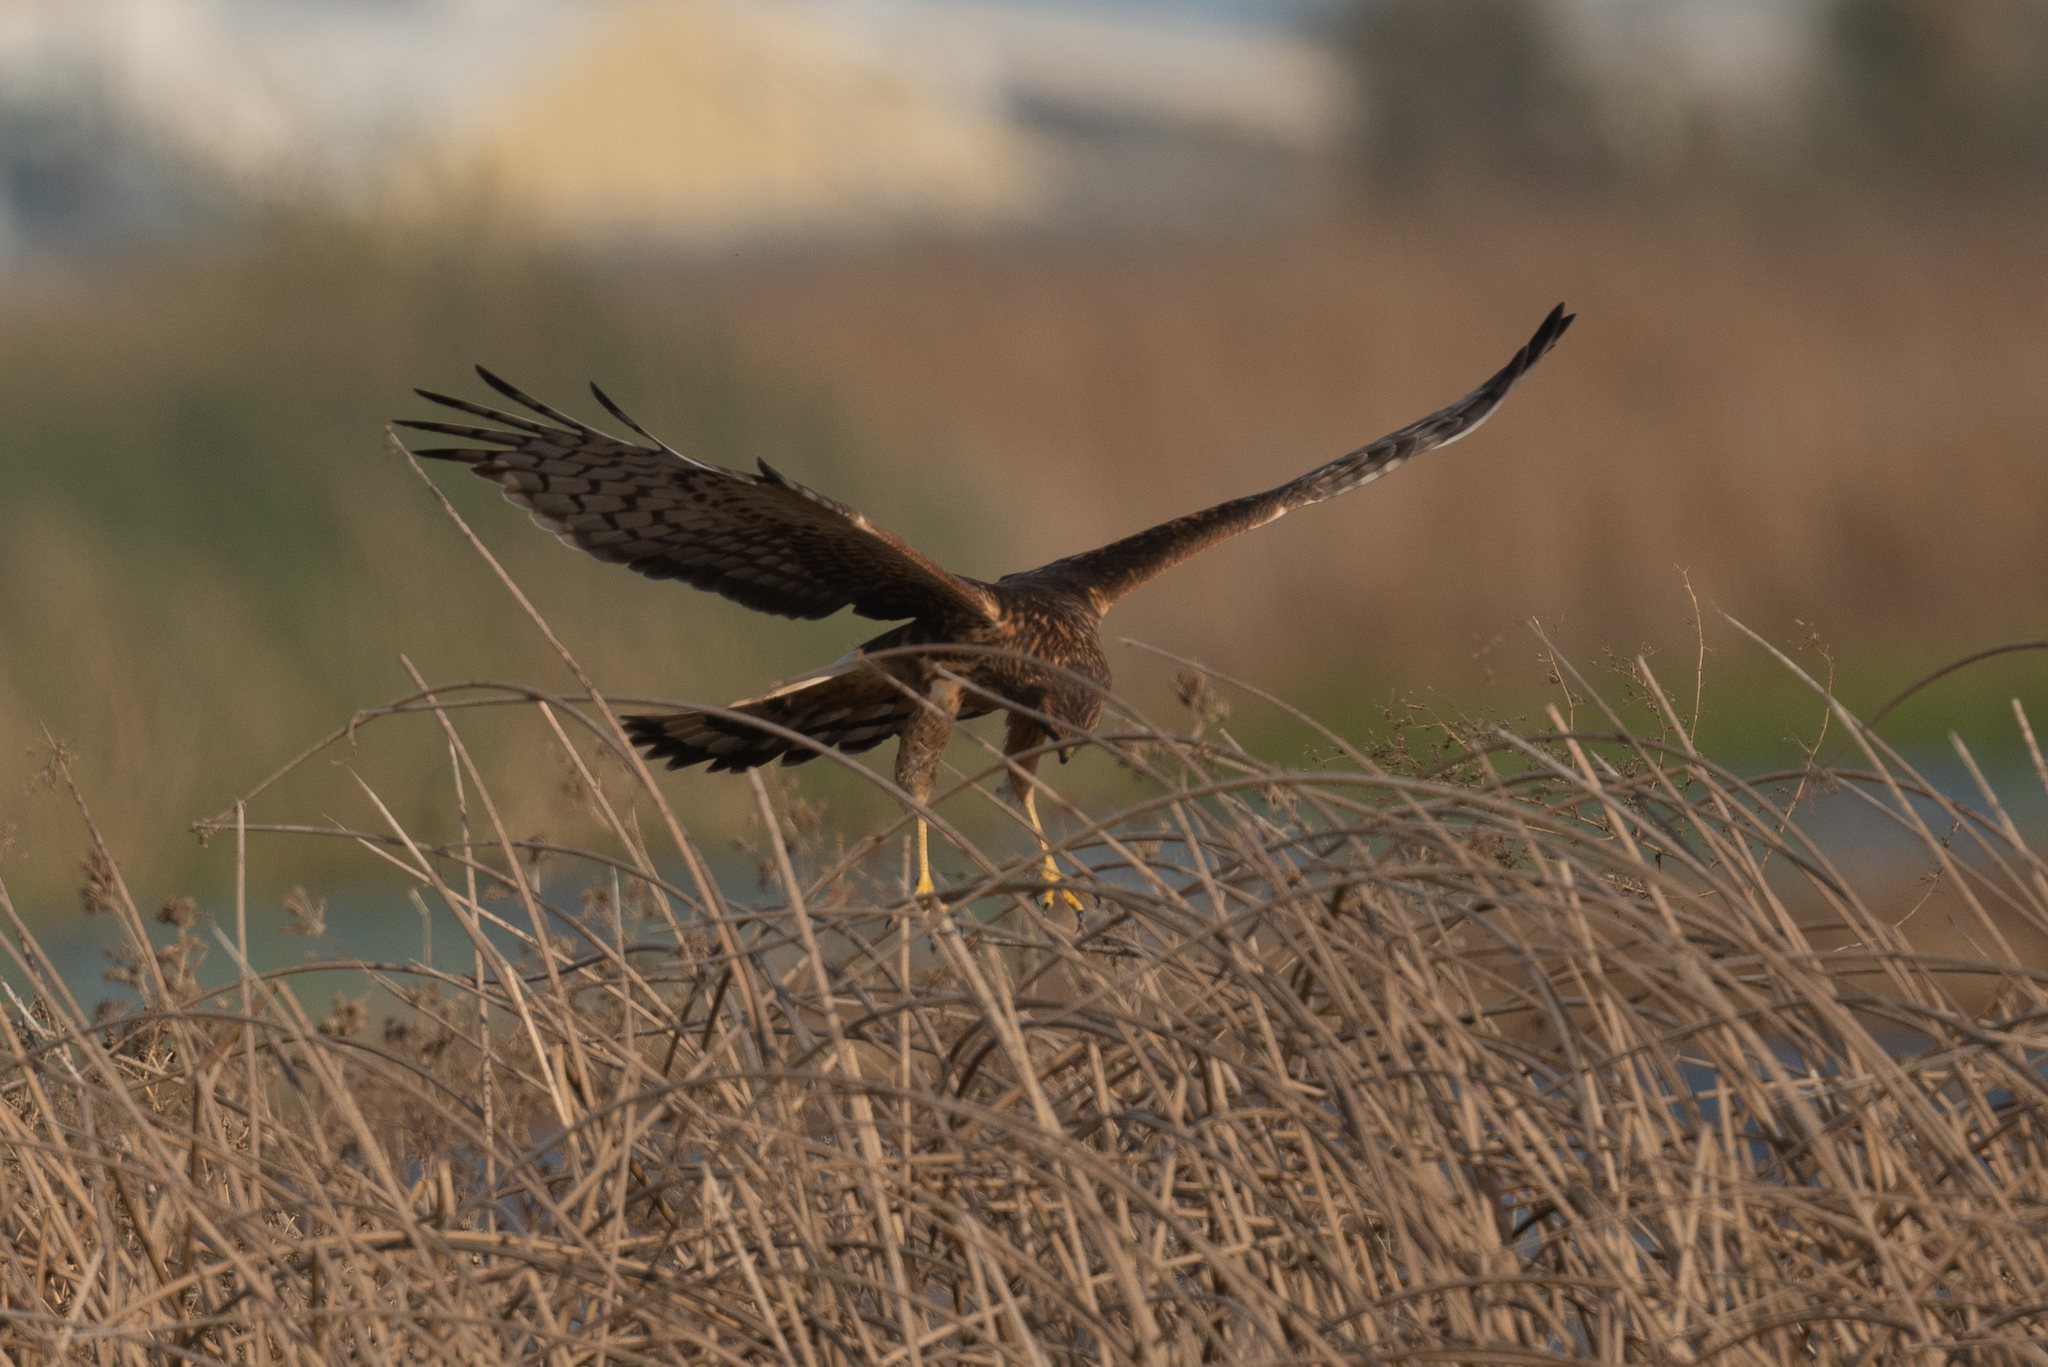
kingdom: Animalia
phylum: Chordata
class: Aves
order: Accipitriformes
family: Accipitridae
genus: Circus
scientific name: Circus cyaneus
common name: Hen harrier
